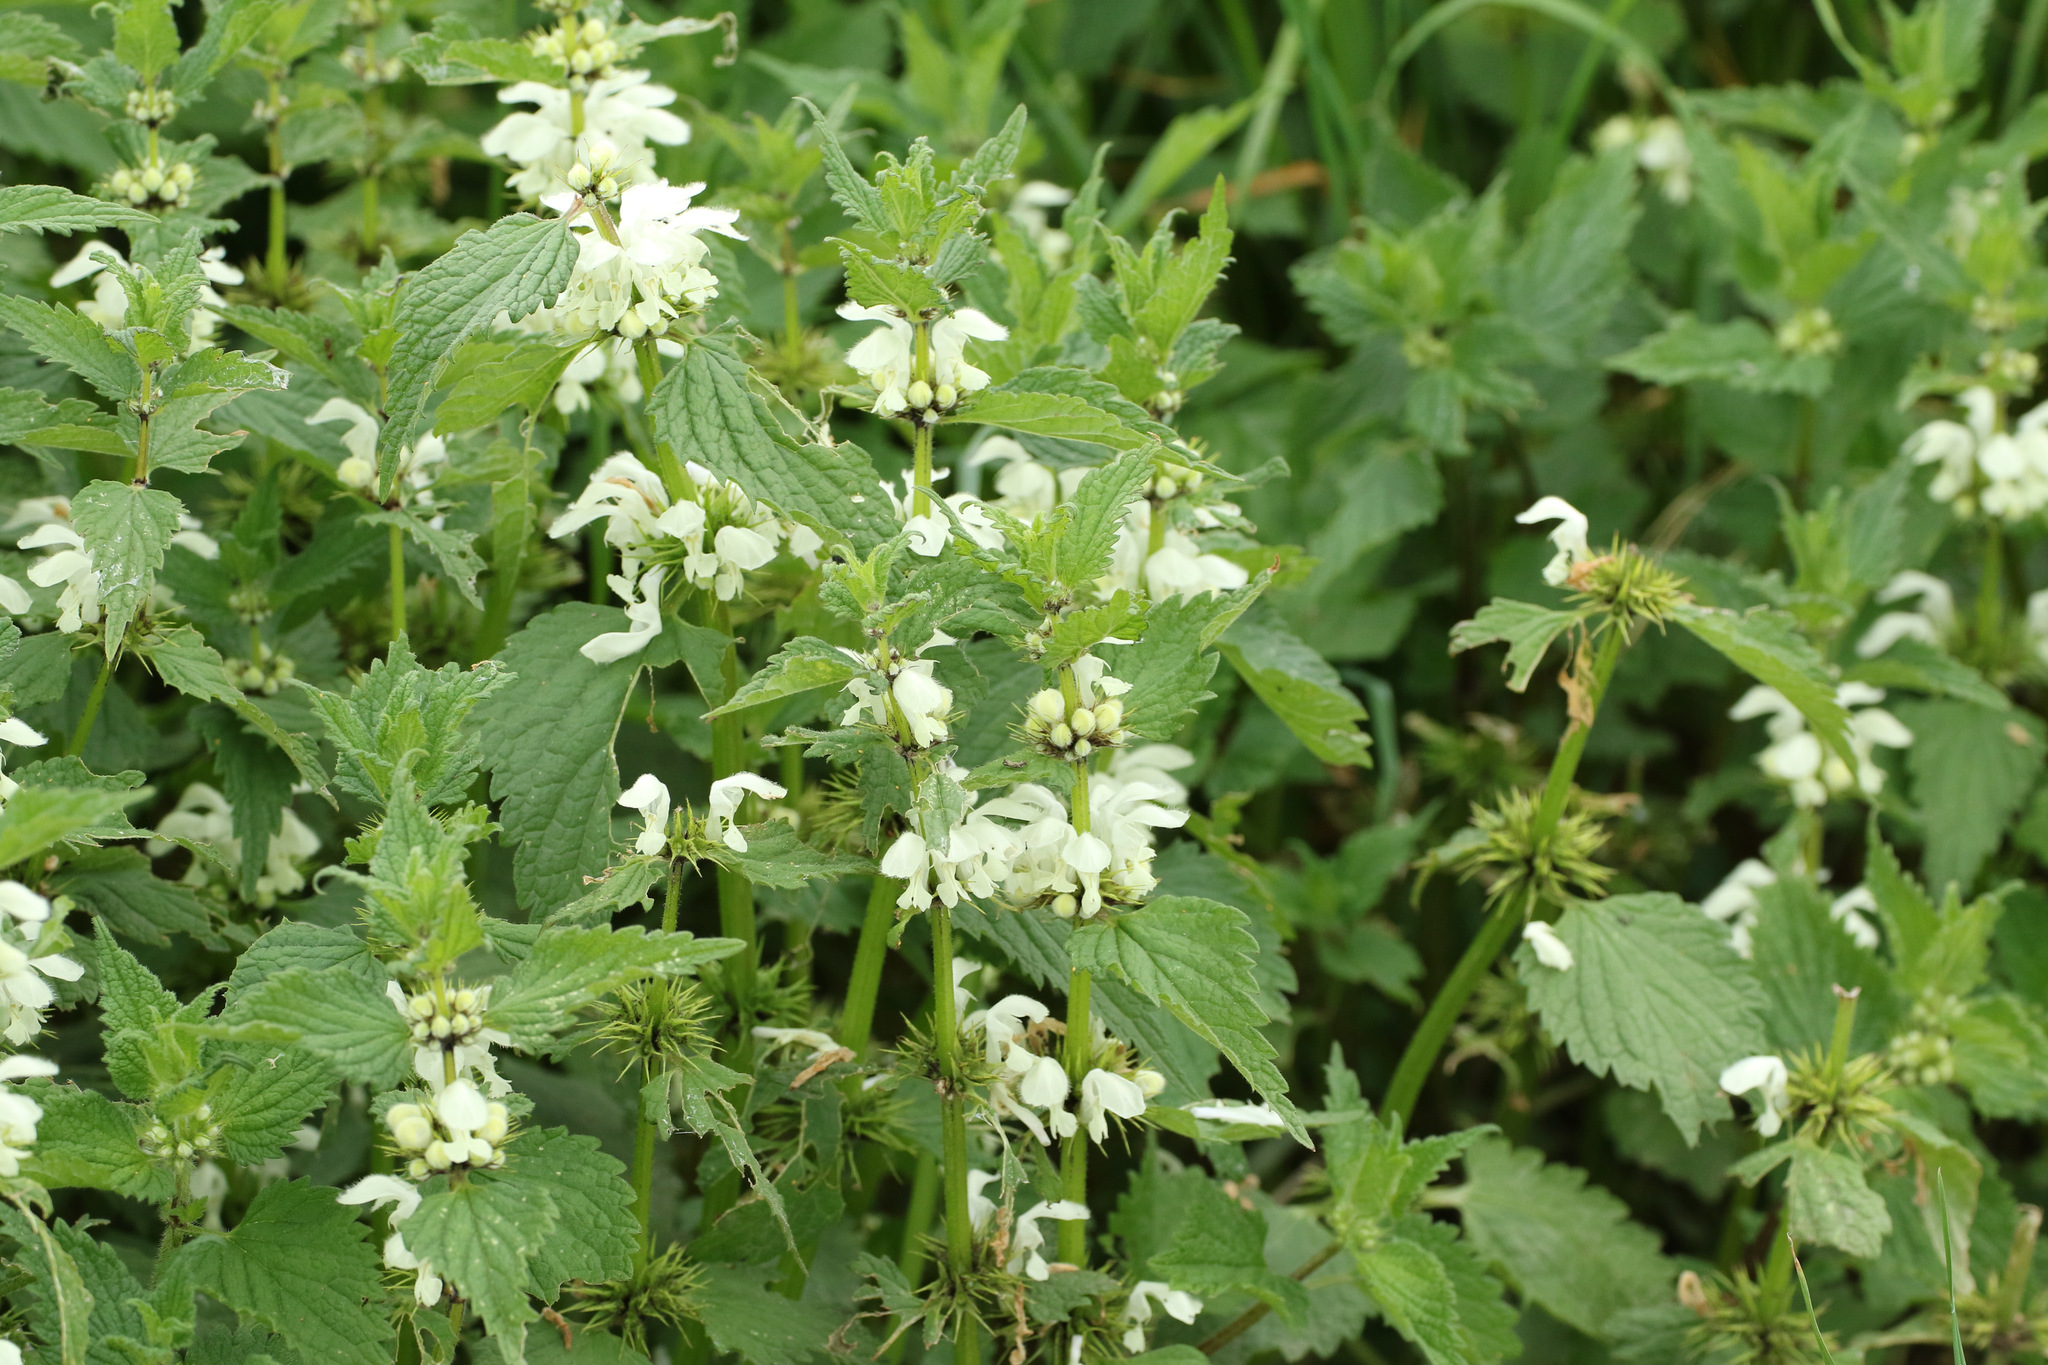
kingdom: Plantae
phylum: Tracheophyta
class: Magnoliopsida
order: Lamiales
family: Lamiaceae
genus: Lamium
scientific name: Lamium album
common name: White dead-nettle
